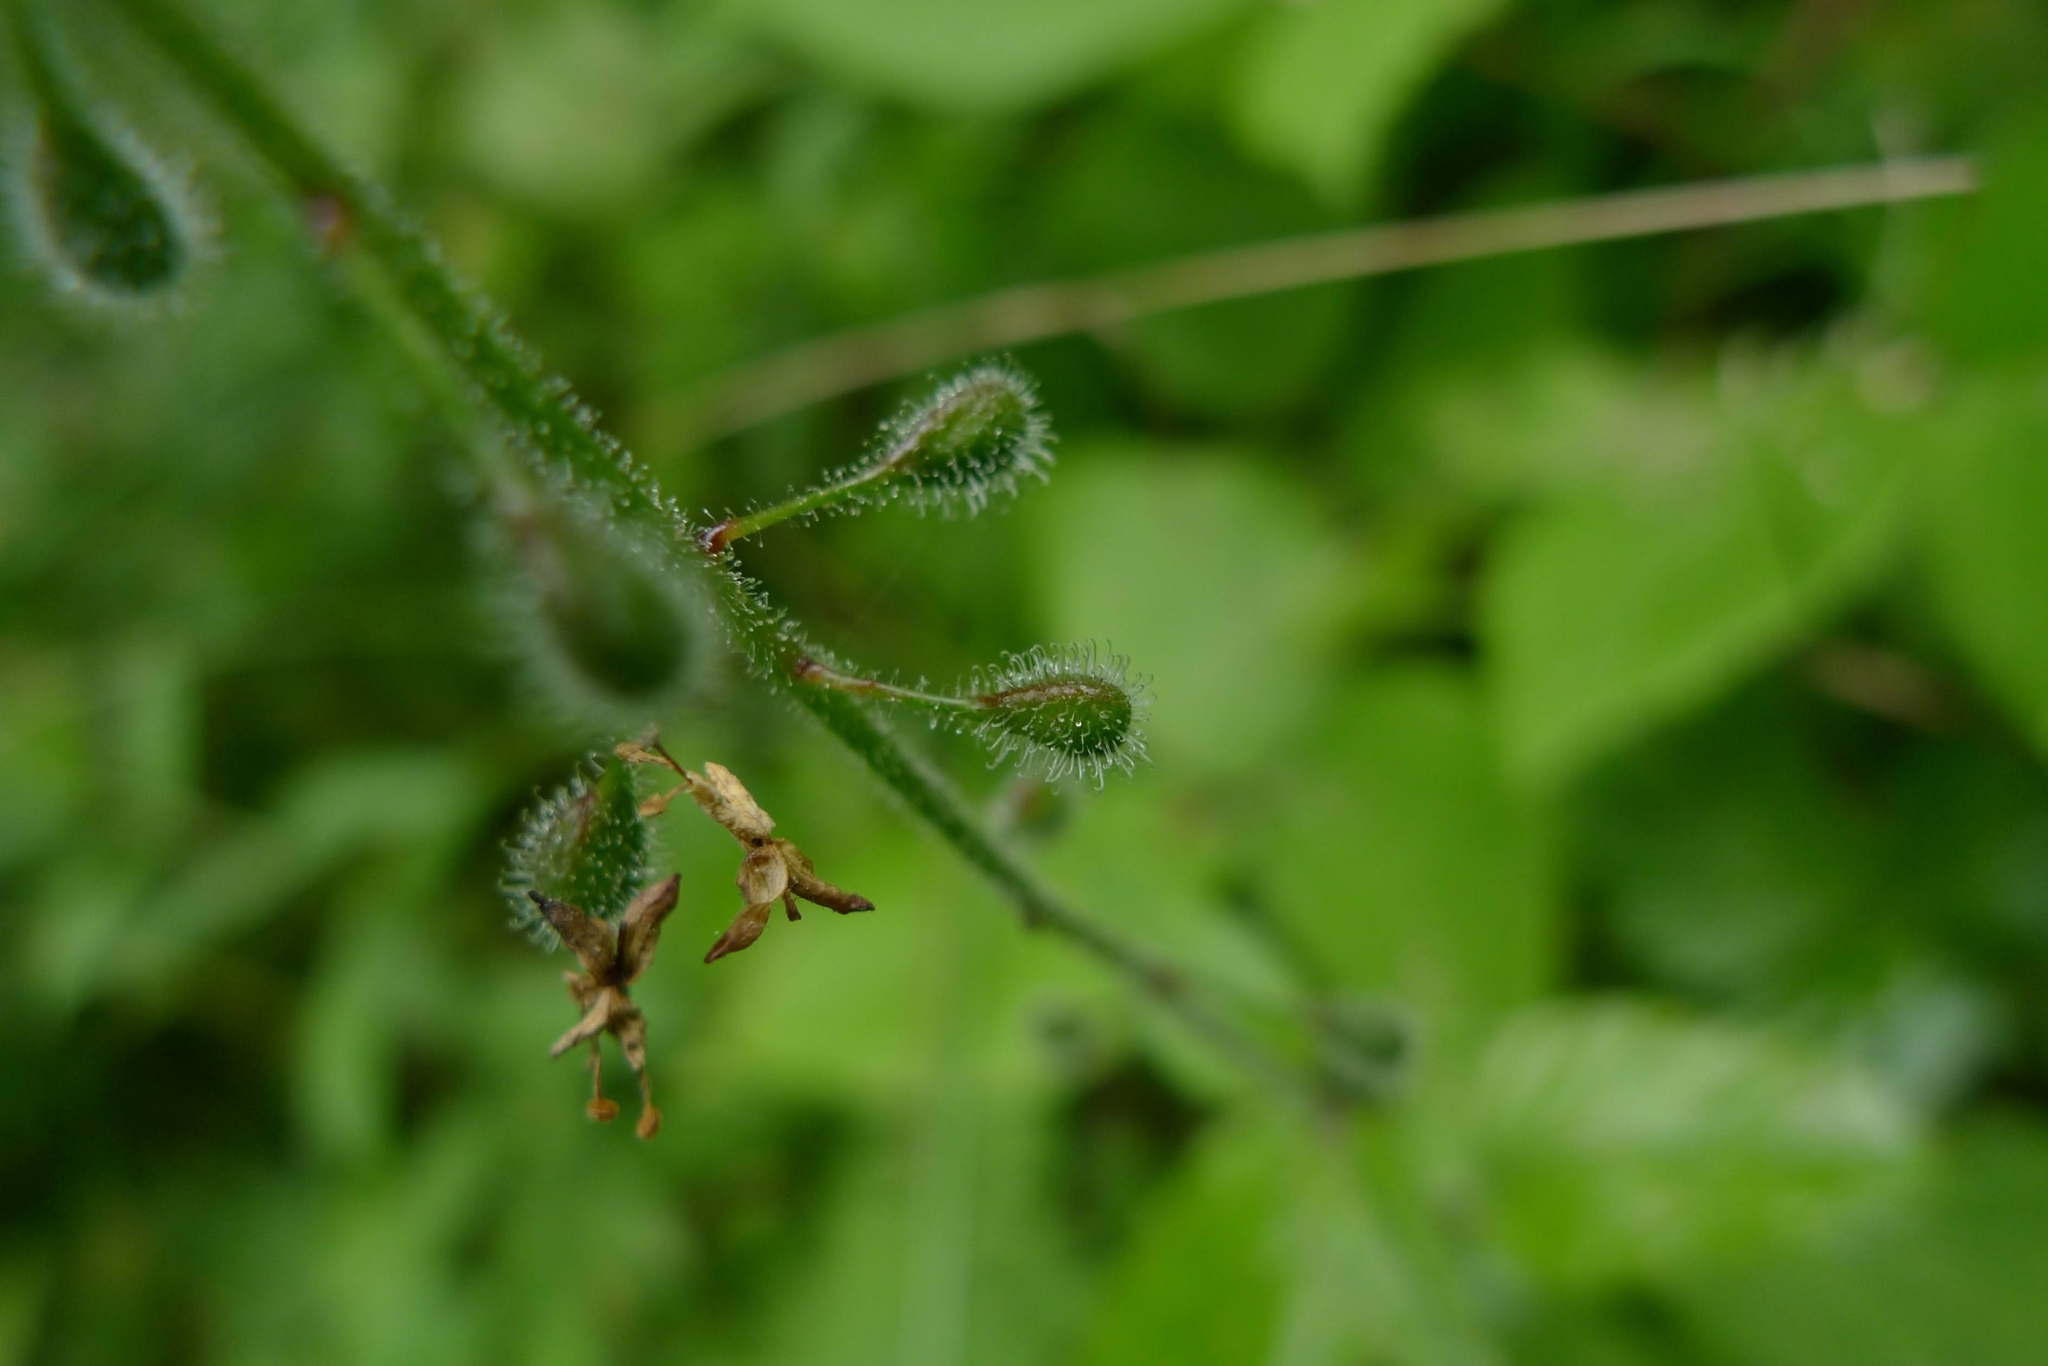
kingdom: Plantae
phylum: Tracheophyta
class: Magnoliopsida
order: Myrtales
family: Onagraceae
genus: Circaea
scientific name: Circaea lutetiana
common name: Enchanter's-nightshade
